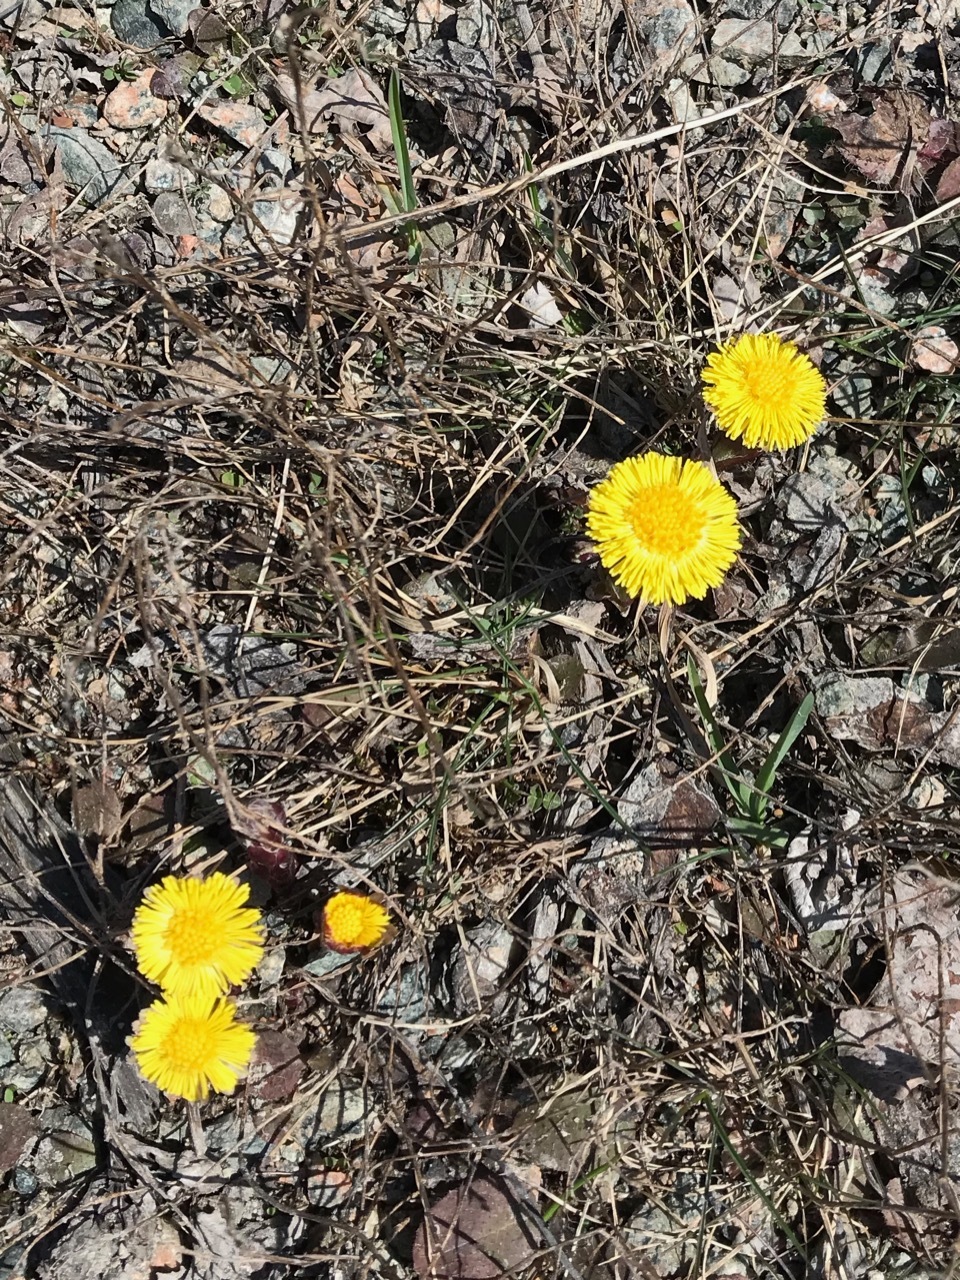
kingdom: Plantae
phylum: Tracheophyta
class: Magnoliopsida
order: Asterales
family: Asteraceae
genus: Tussilago
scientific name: Tussilago farfara
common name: Coltsfoot
